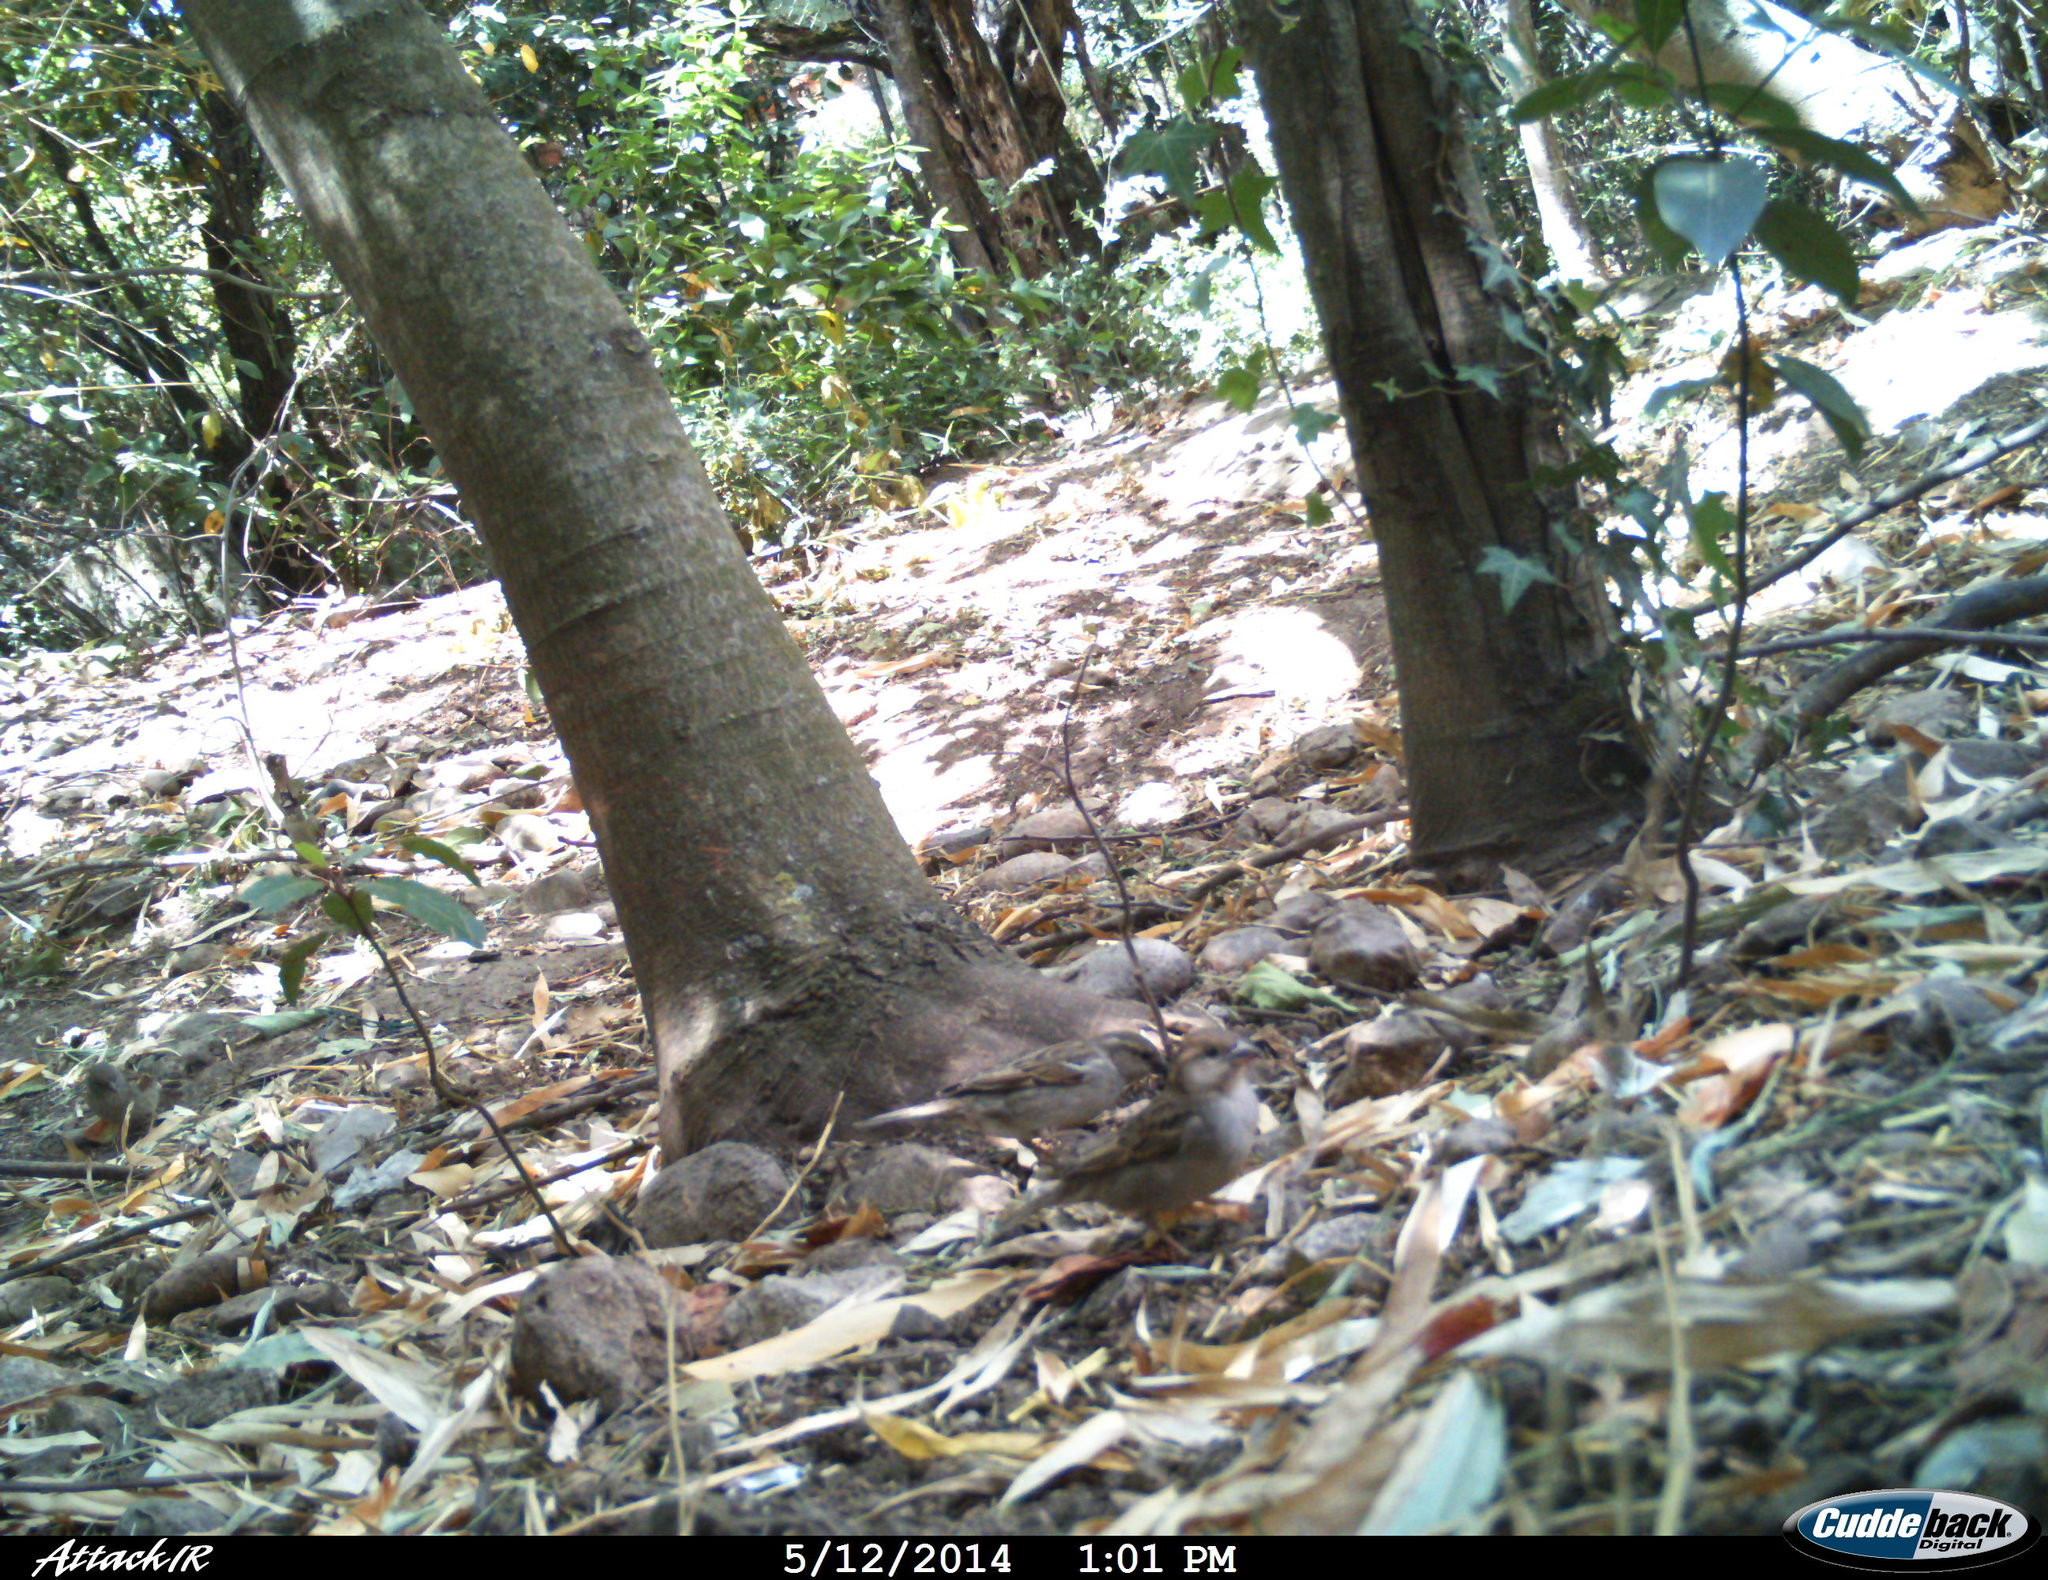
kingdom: Animalia
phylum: Chordata
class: Aves
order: Passeriformes
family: Passeridae
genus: Passer
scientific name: Passer domesticus
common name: House sparrow
